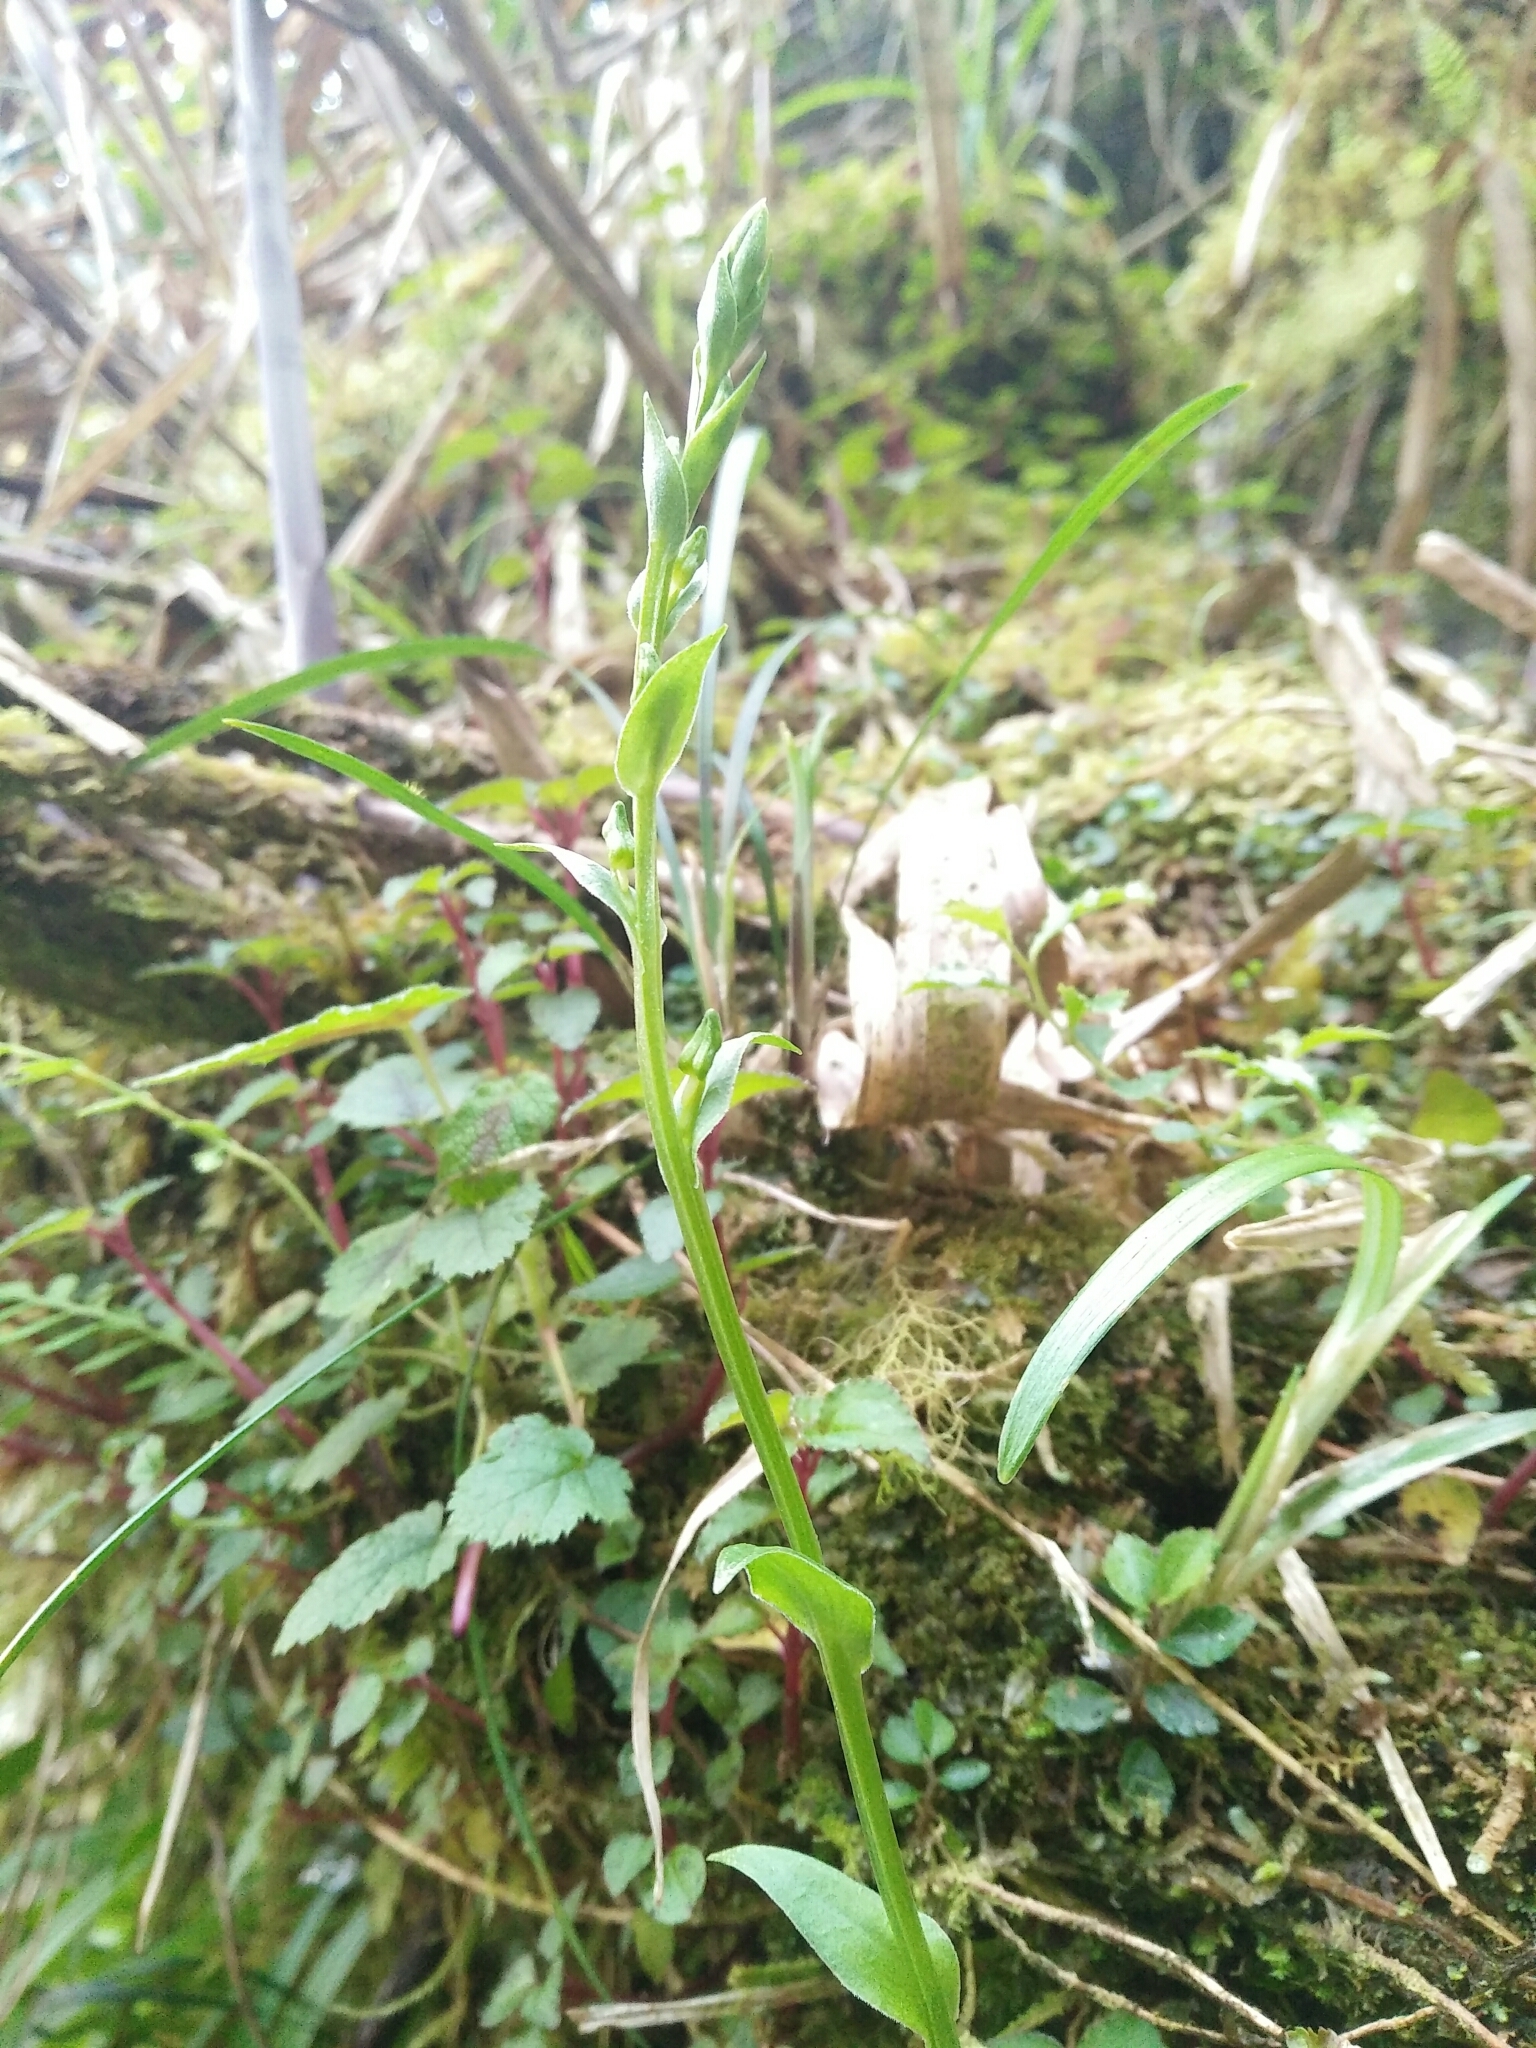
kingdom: Plantae
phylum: Tracheophyta
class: Liliopsida
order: Asparagales
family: Orchidaceae
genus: Platanthera
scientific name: Platanthera formosana
